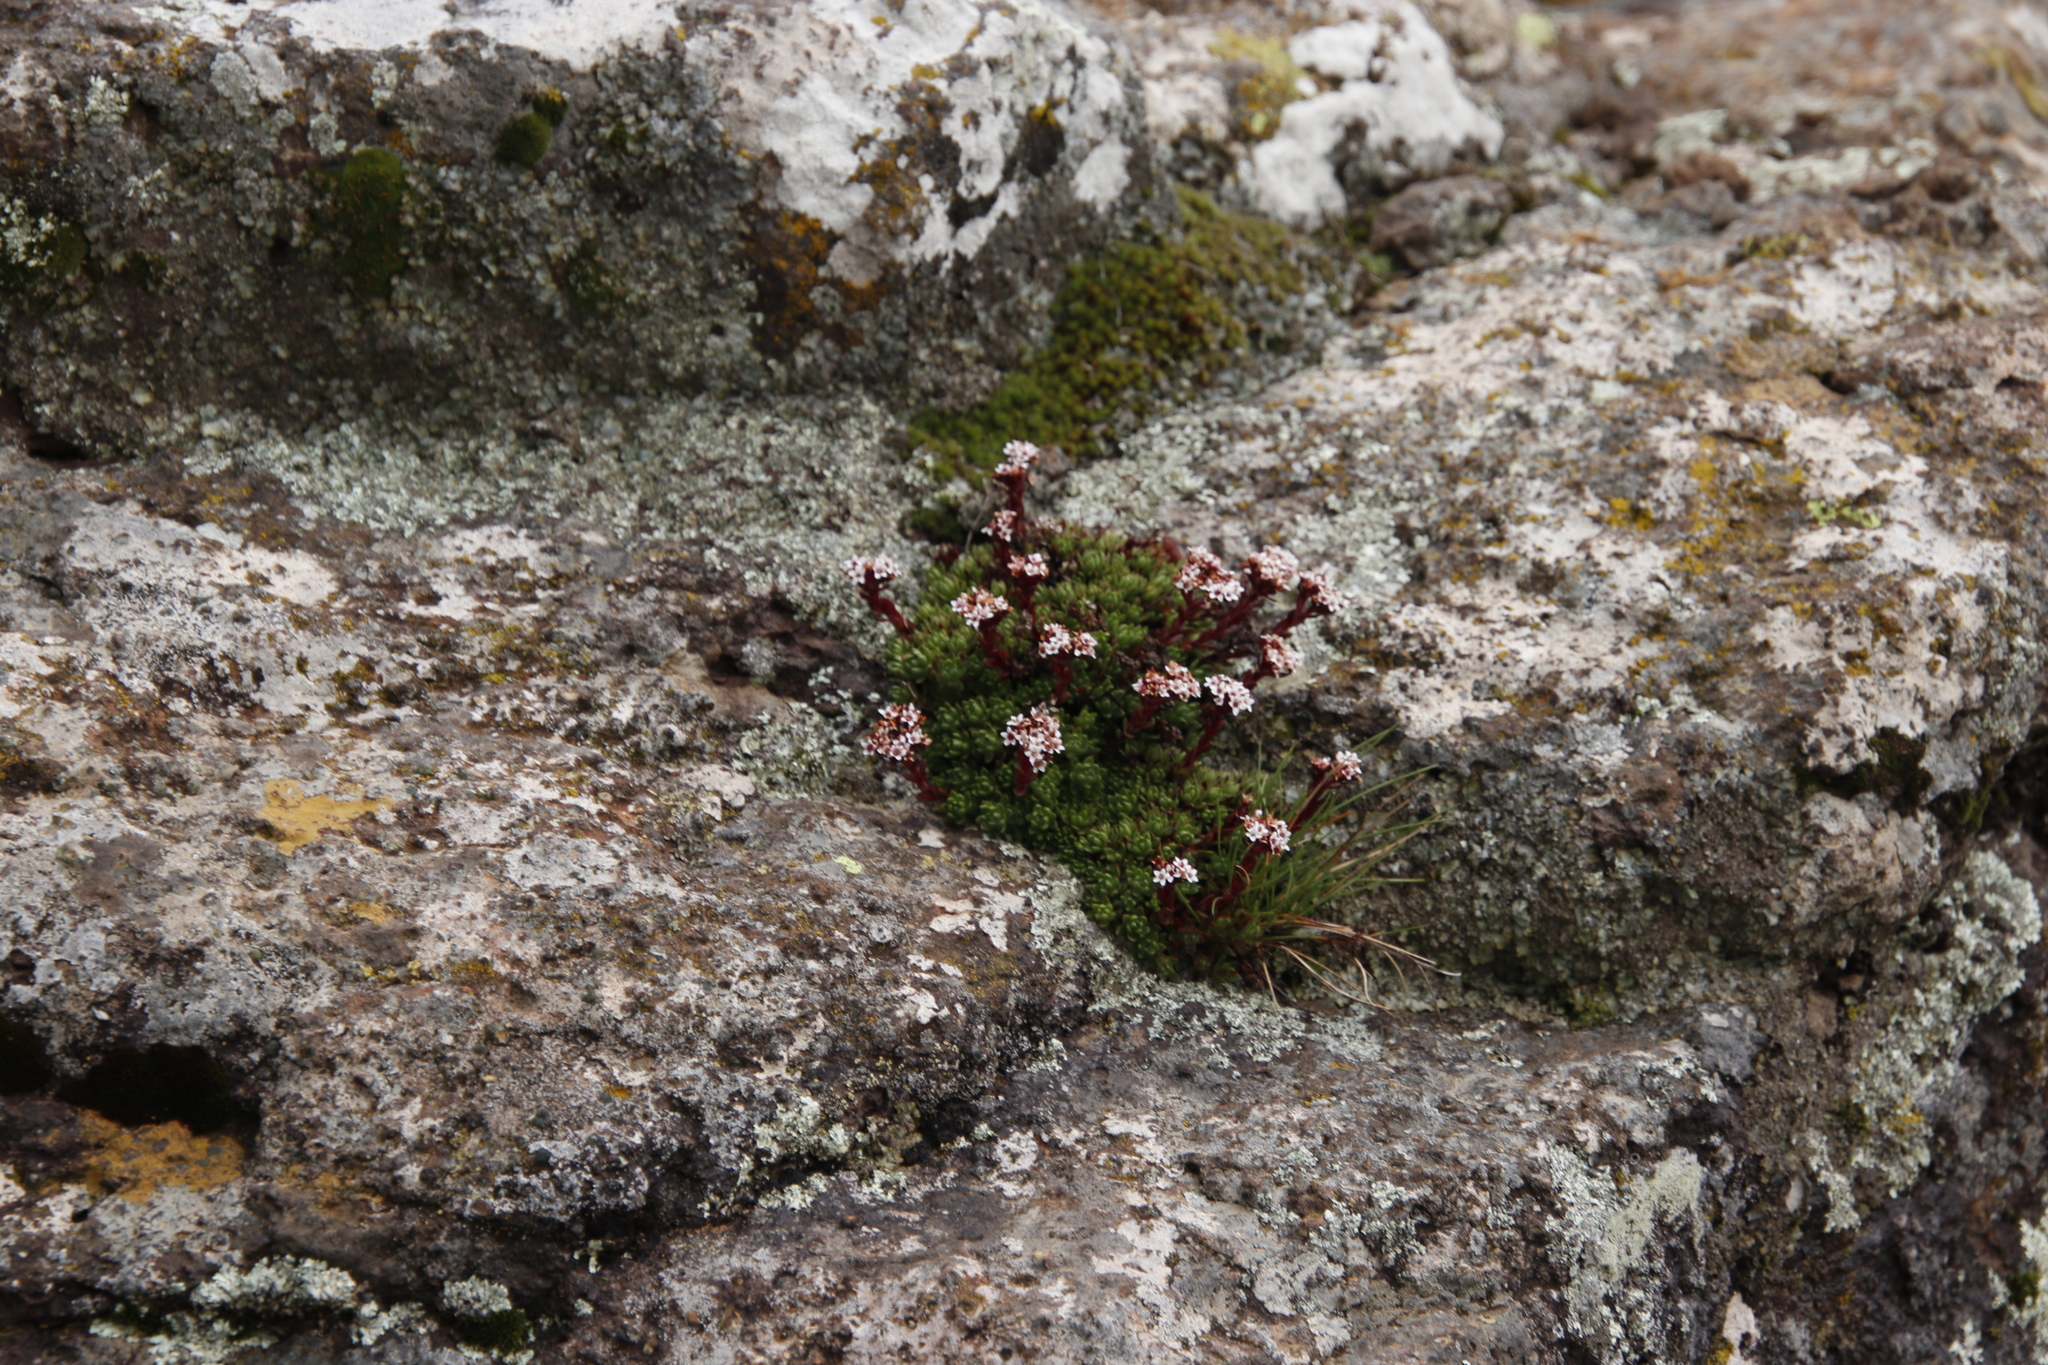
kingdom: Plantae
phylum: Tracheophyta
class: Magnoliopsida
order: Saxifragales
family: Crassulaceae
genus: Crassula
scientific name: Crassula setulosa
